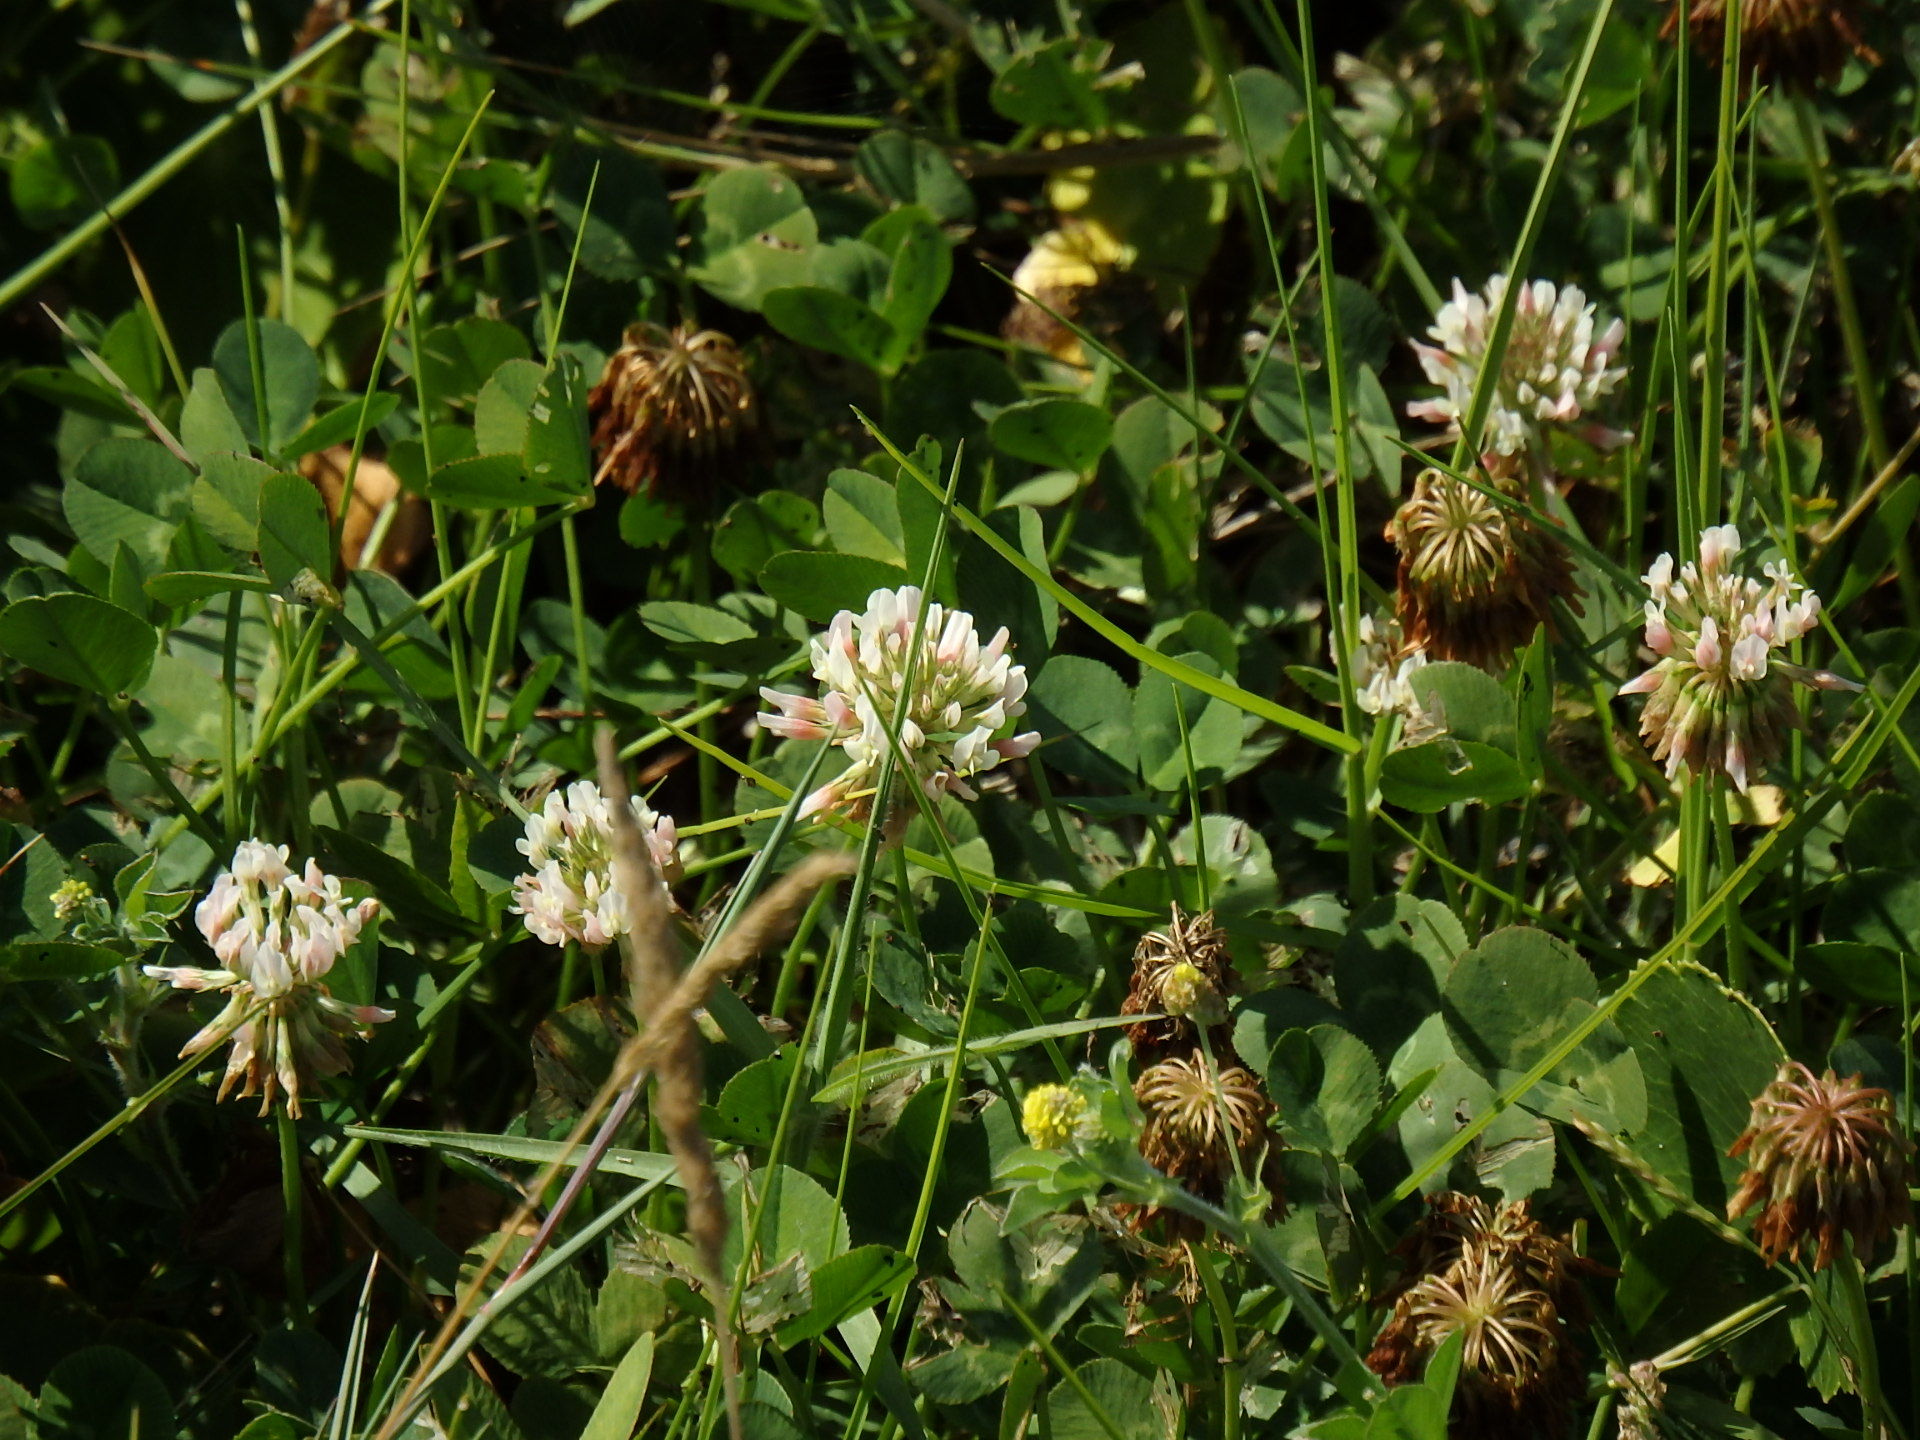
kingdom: Plantae
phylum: Tracheophyta
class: Magnoliopsida
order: Fabales
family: Fabaceae
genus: Trifolium
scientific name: Trifolium repens
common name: White clover
